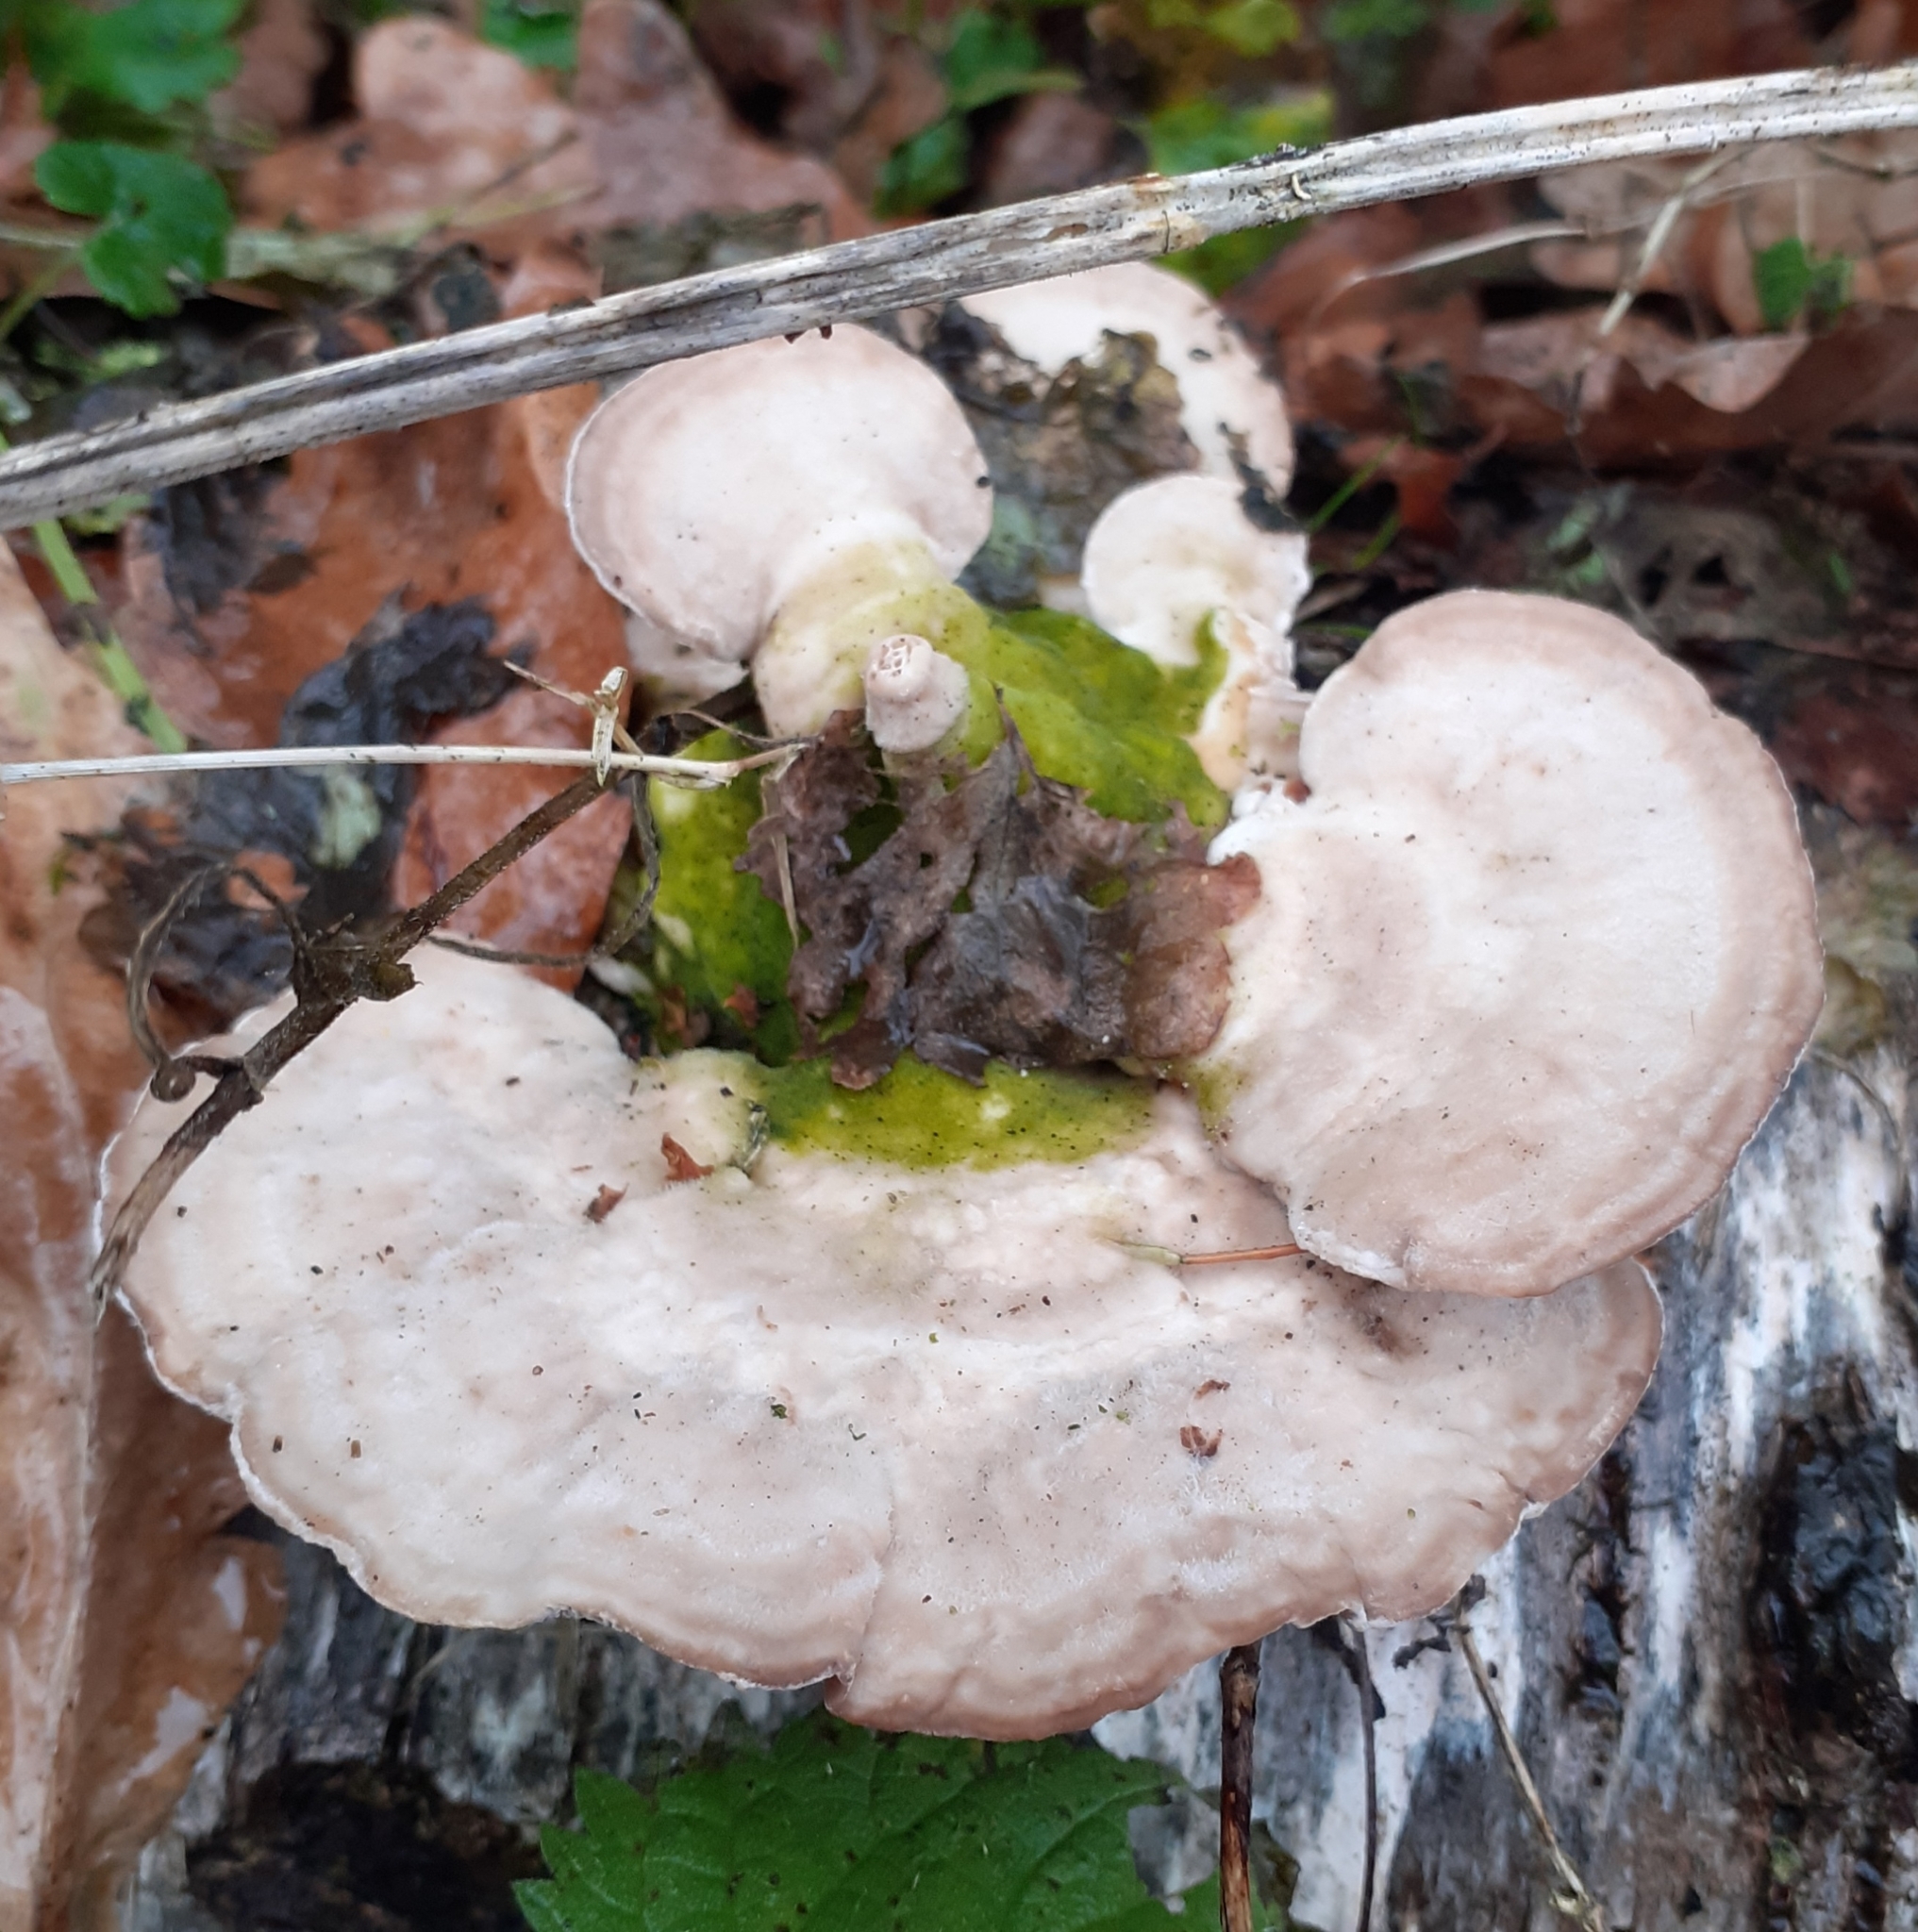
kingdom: Fungi
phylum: Basidiomycota
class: Agaricomycetes
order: Polyporales
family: Polyporaceae
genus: Trametes
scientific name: Trametes gibbosa
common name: Lumpy bracket
